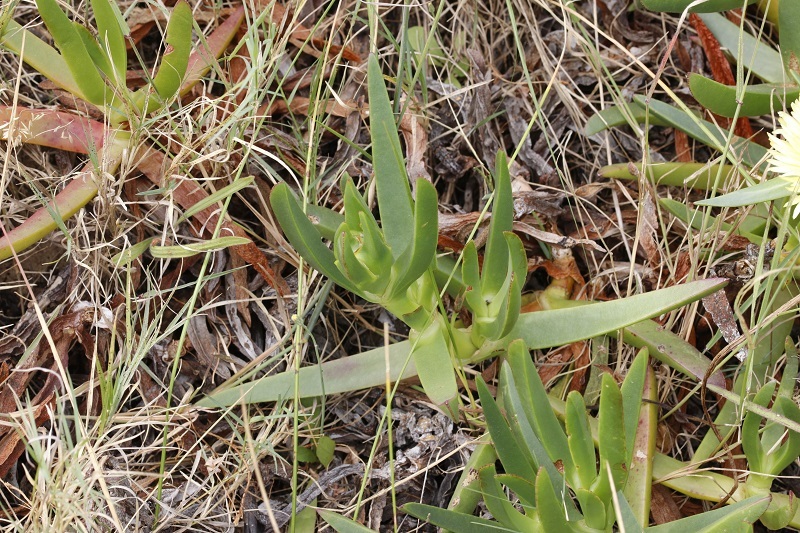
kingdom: Plantae
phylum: Tracheophyta
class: Magnoliopsida
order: Caryophyllales
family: Aizoaceae
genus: Carpobrotus
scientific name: Carpobrotus edulis
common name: Hottentot-fig
